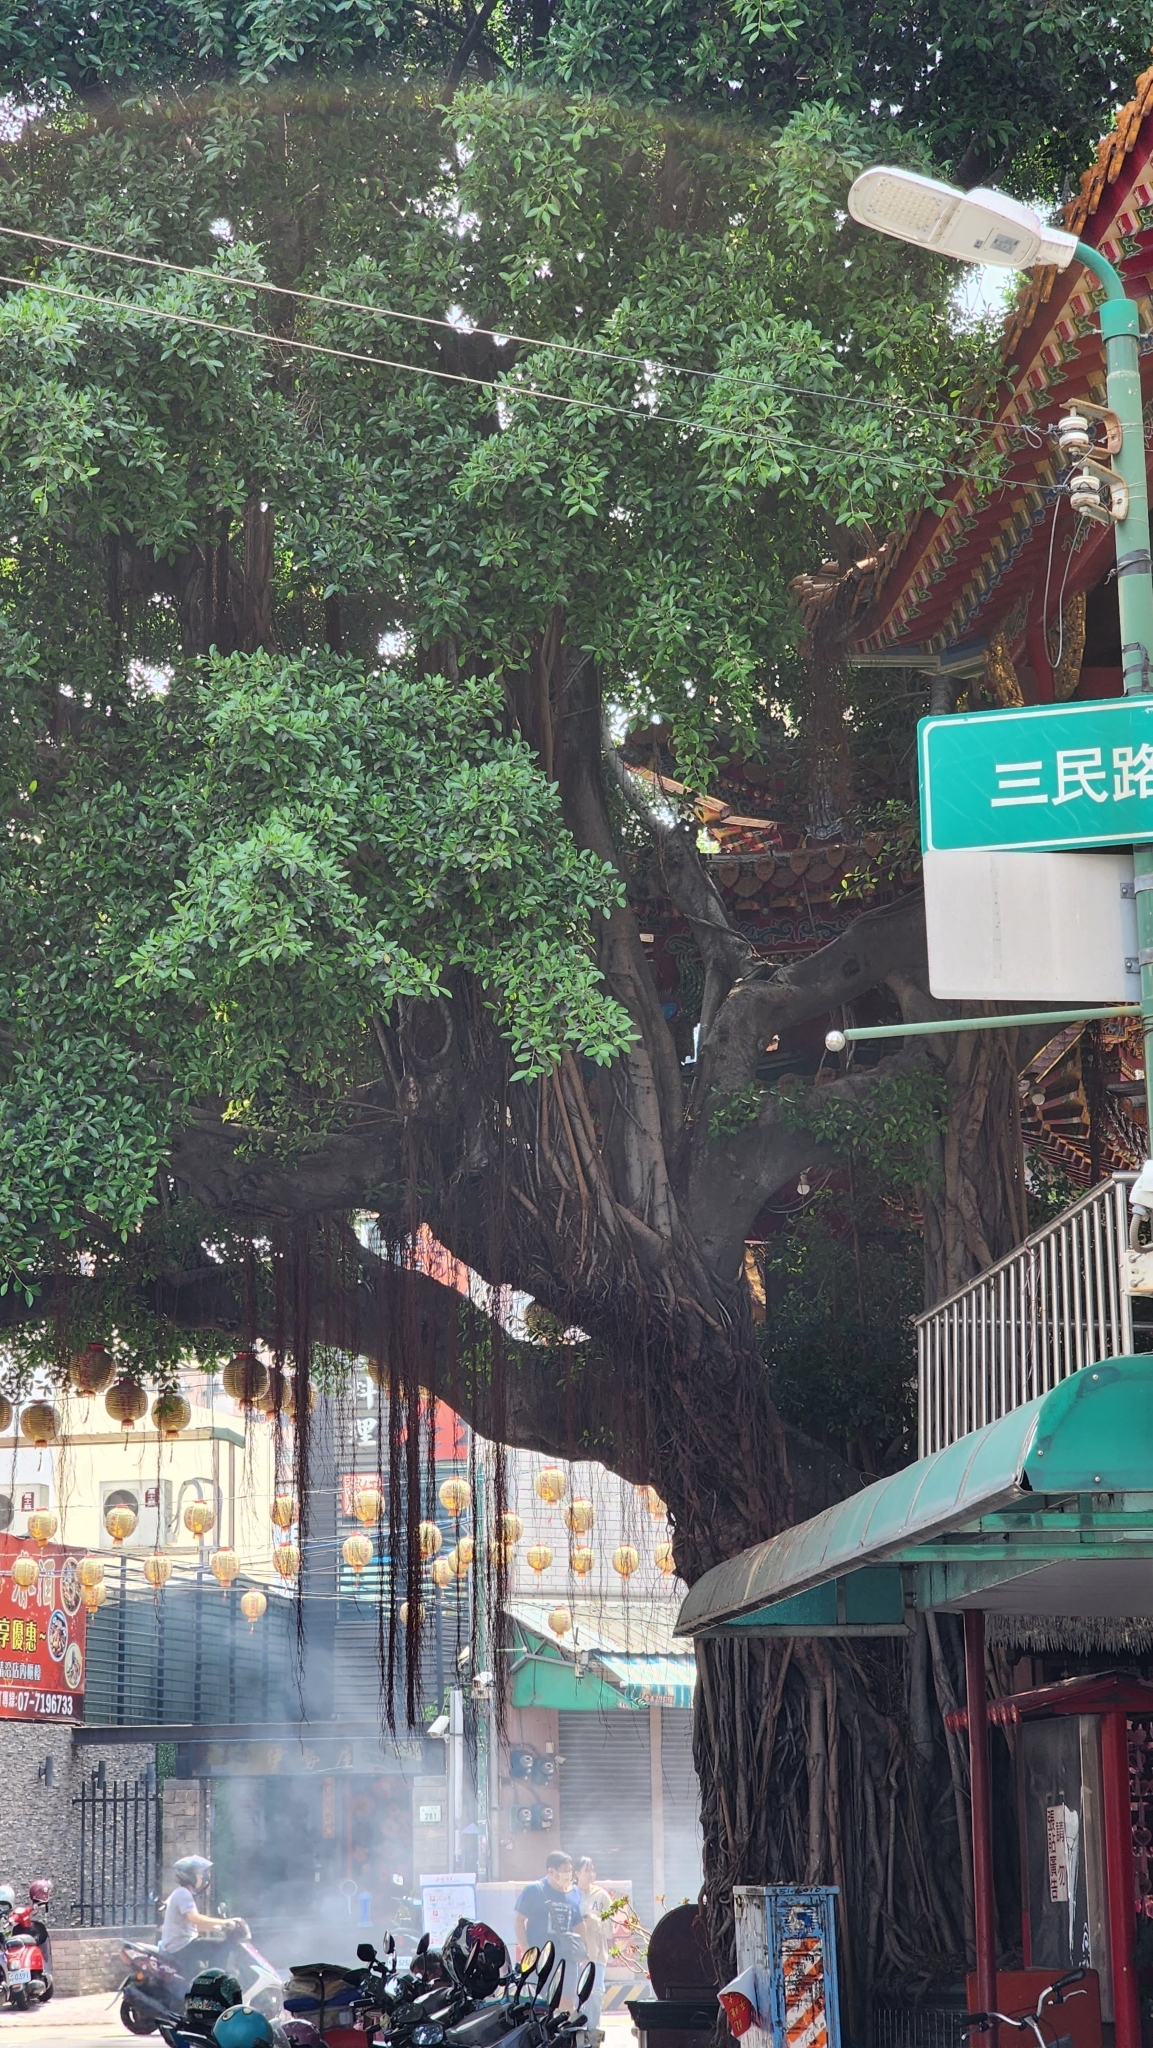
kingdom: Plantae
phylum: Tracheophyta
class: Magnoliopsida
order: Rosales
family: Moraceae
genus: Ficus
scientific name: Ficus microcarpa
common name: Chinese banyan
